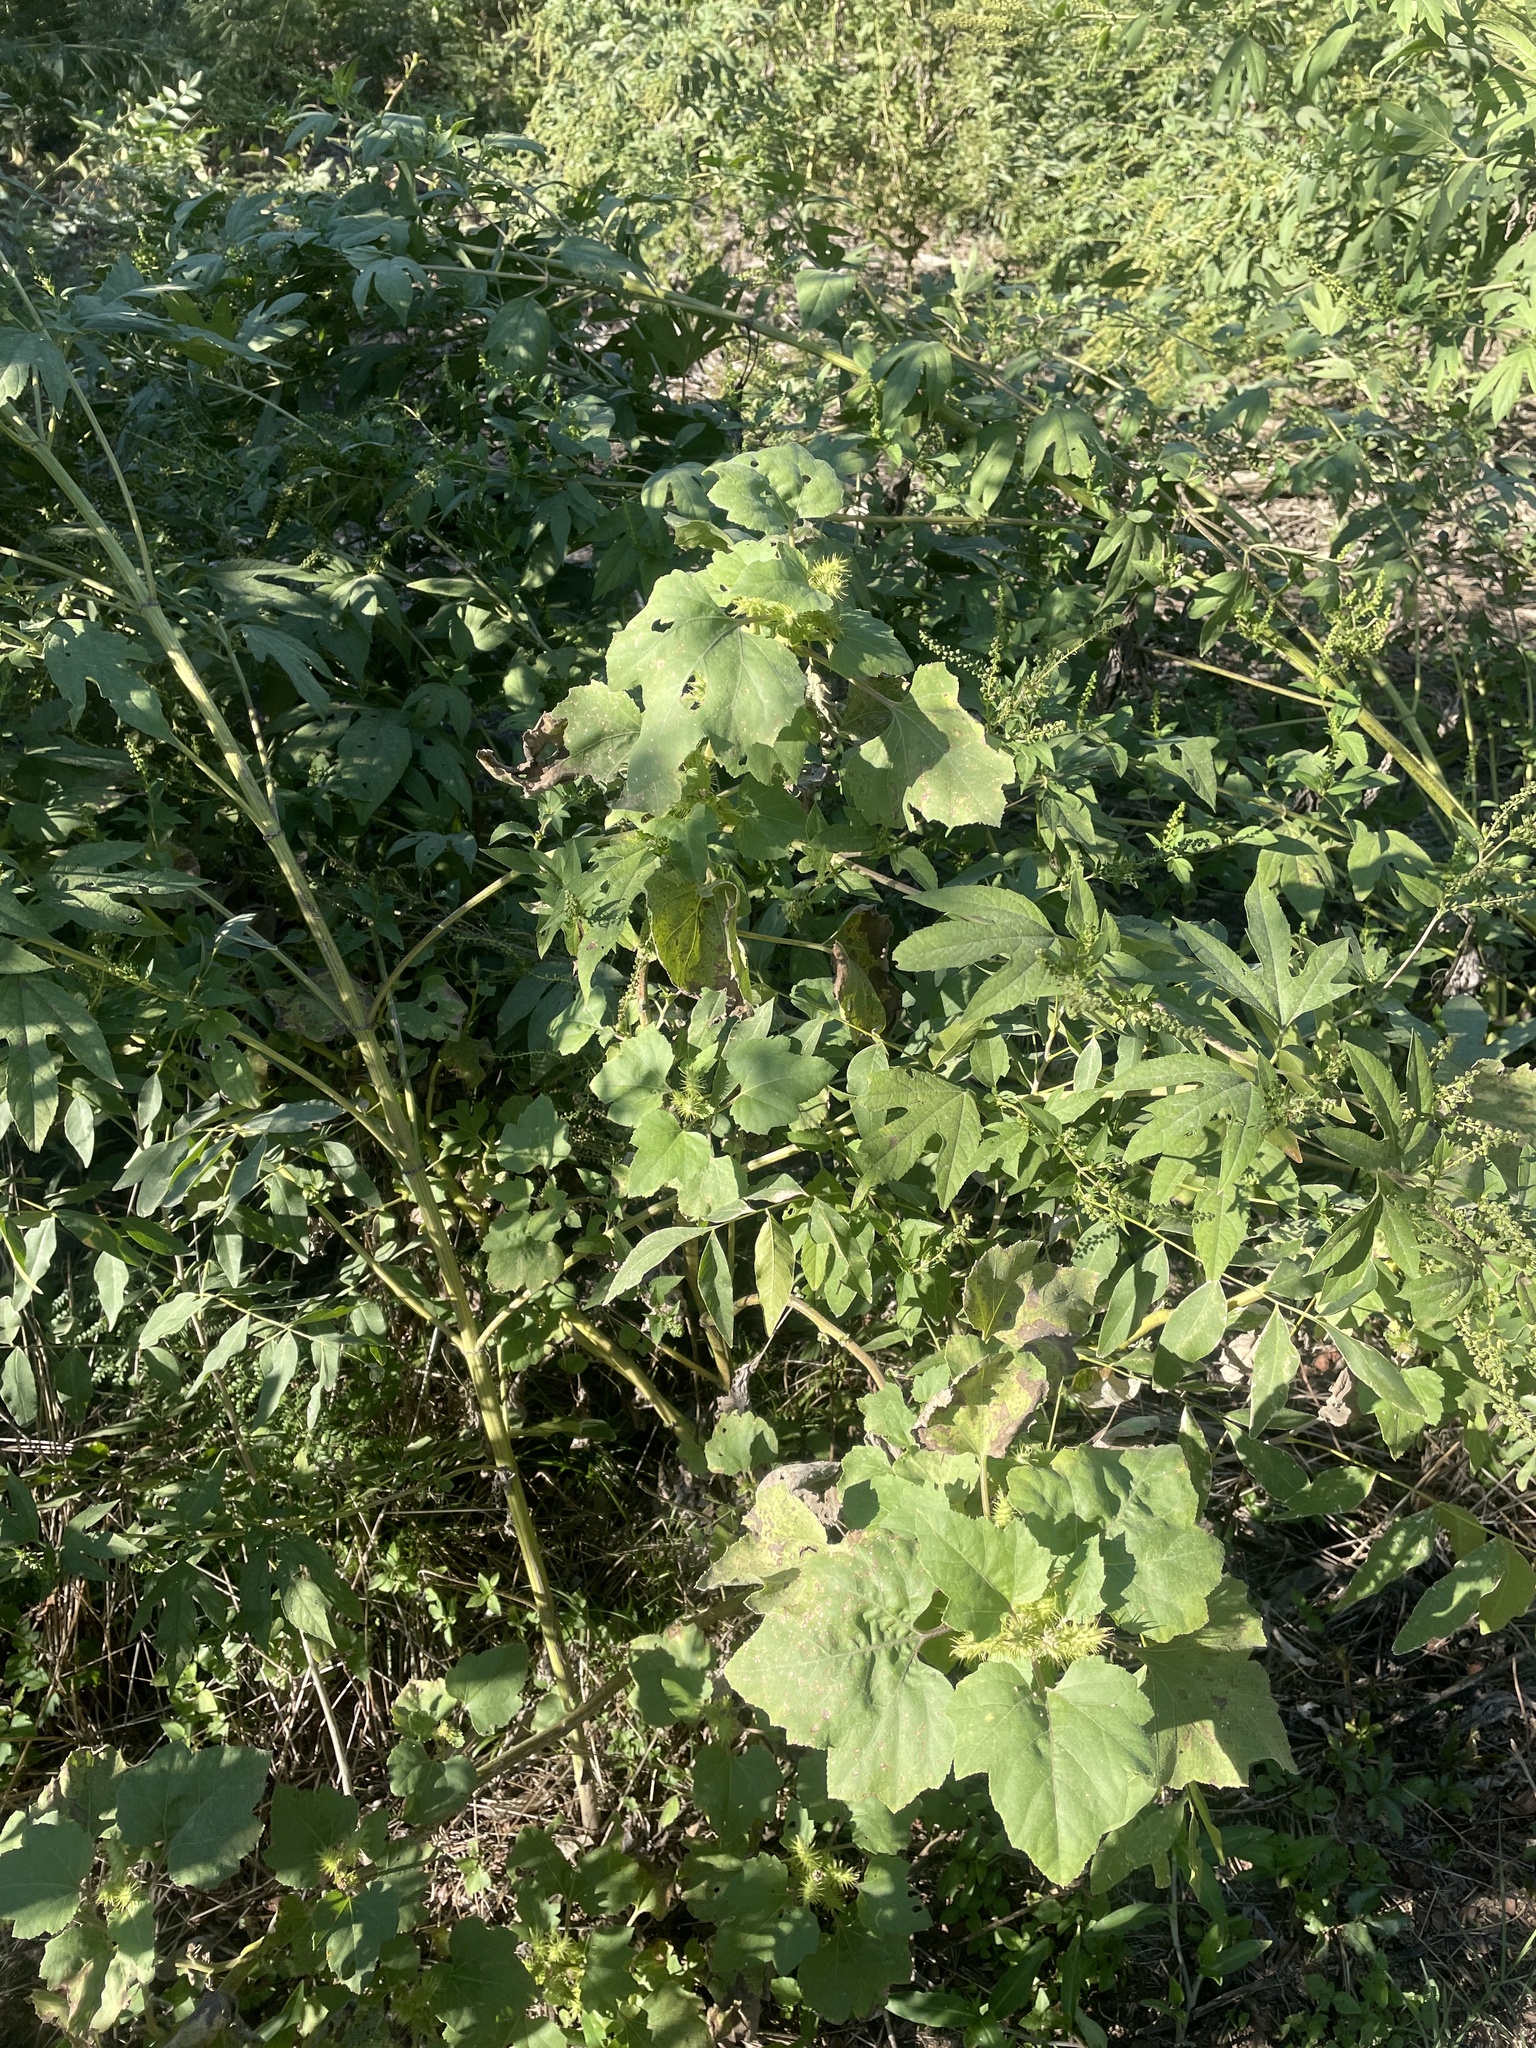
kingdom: Plantae
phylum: Tracheophyta
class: Magnoliopsida
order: Asterales
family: Asteraceae
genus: Xanthium
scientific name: Xanthium strumarium
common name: Rough cocklebur
